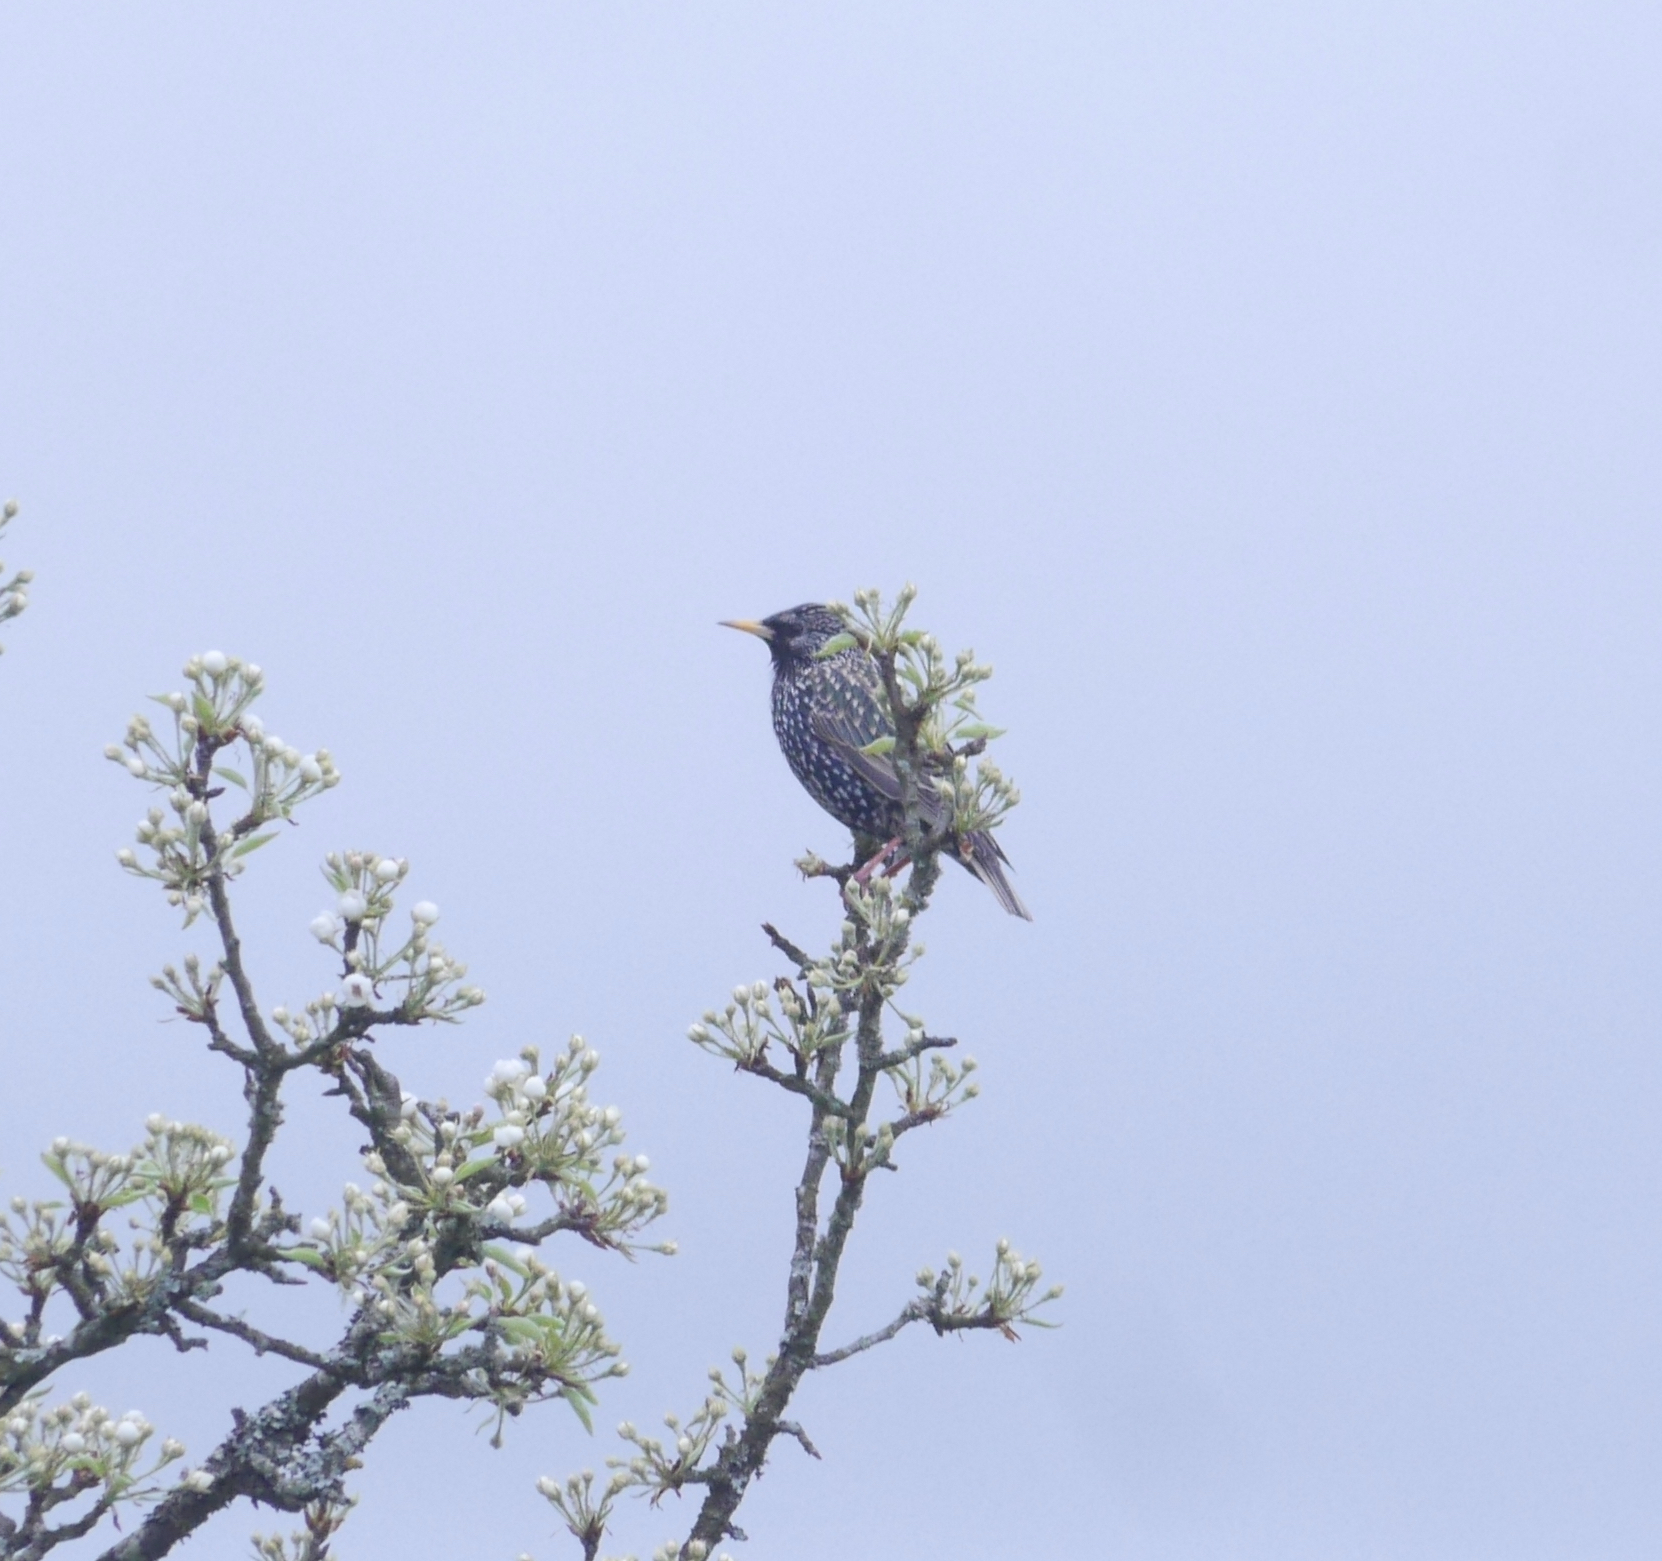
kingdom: Animalia
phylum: Chordata
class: Aves
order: Passeriformes
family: Sturnidae
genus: Sturnus
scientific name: Sturnus vulgaris
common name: Common starling
